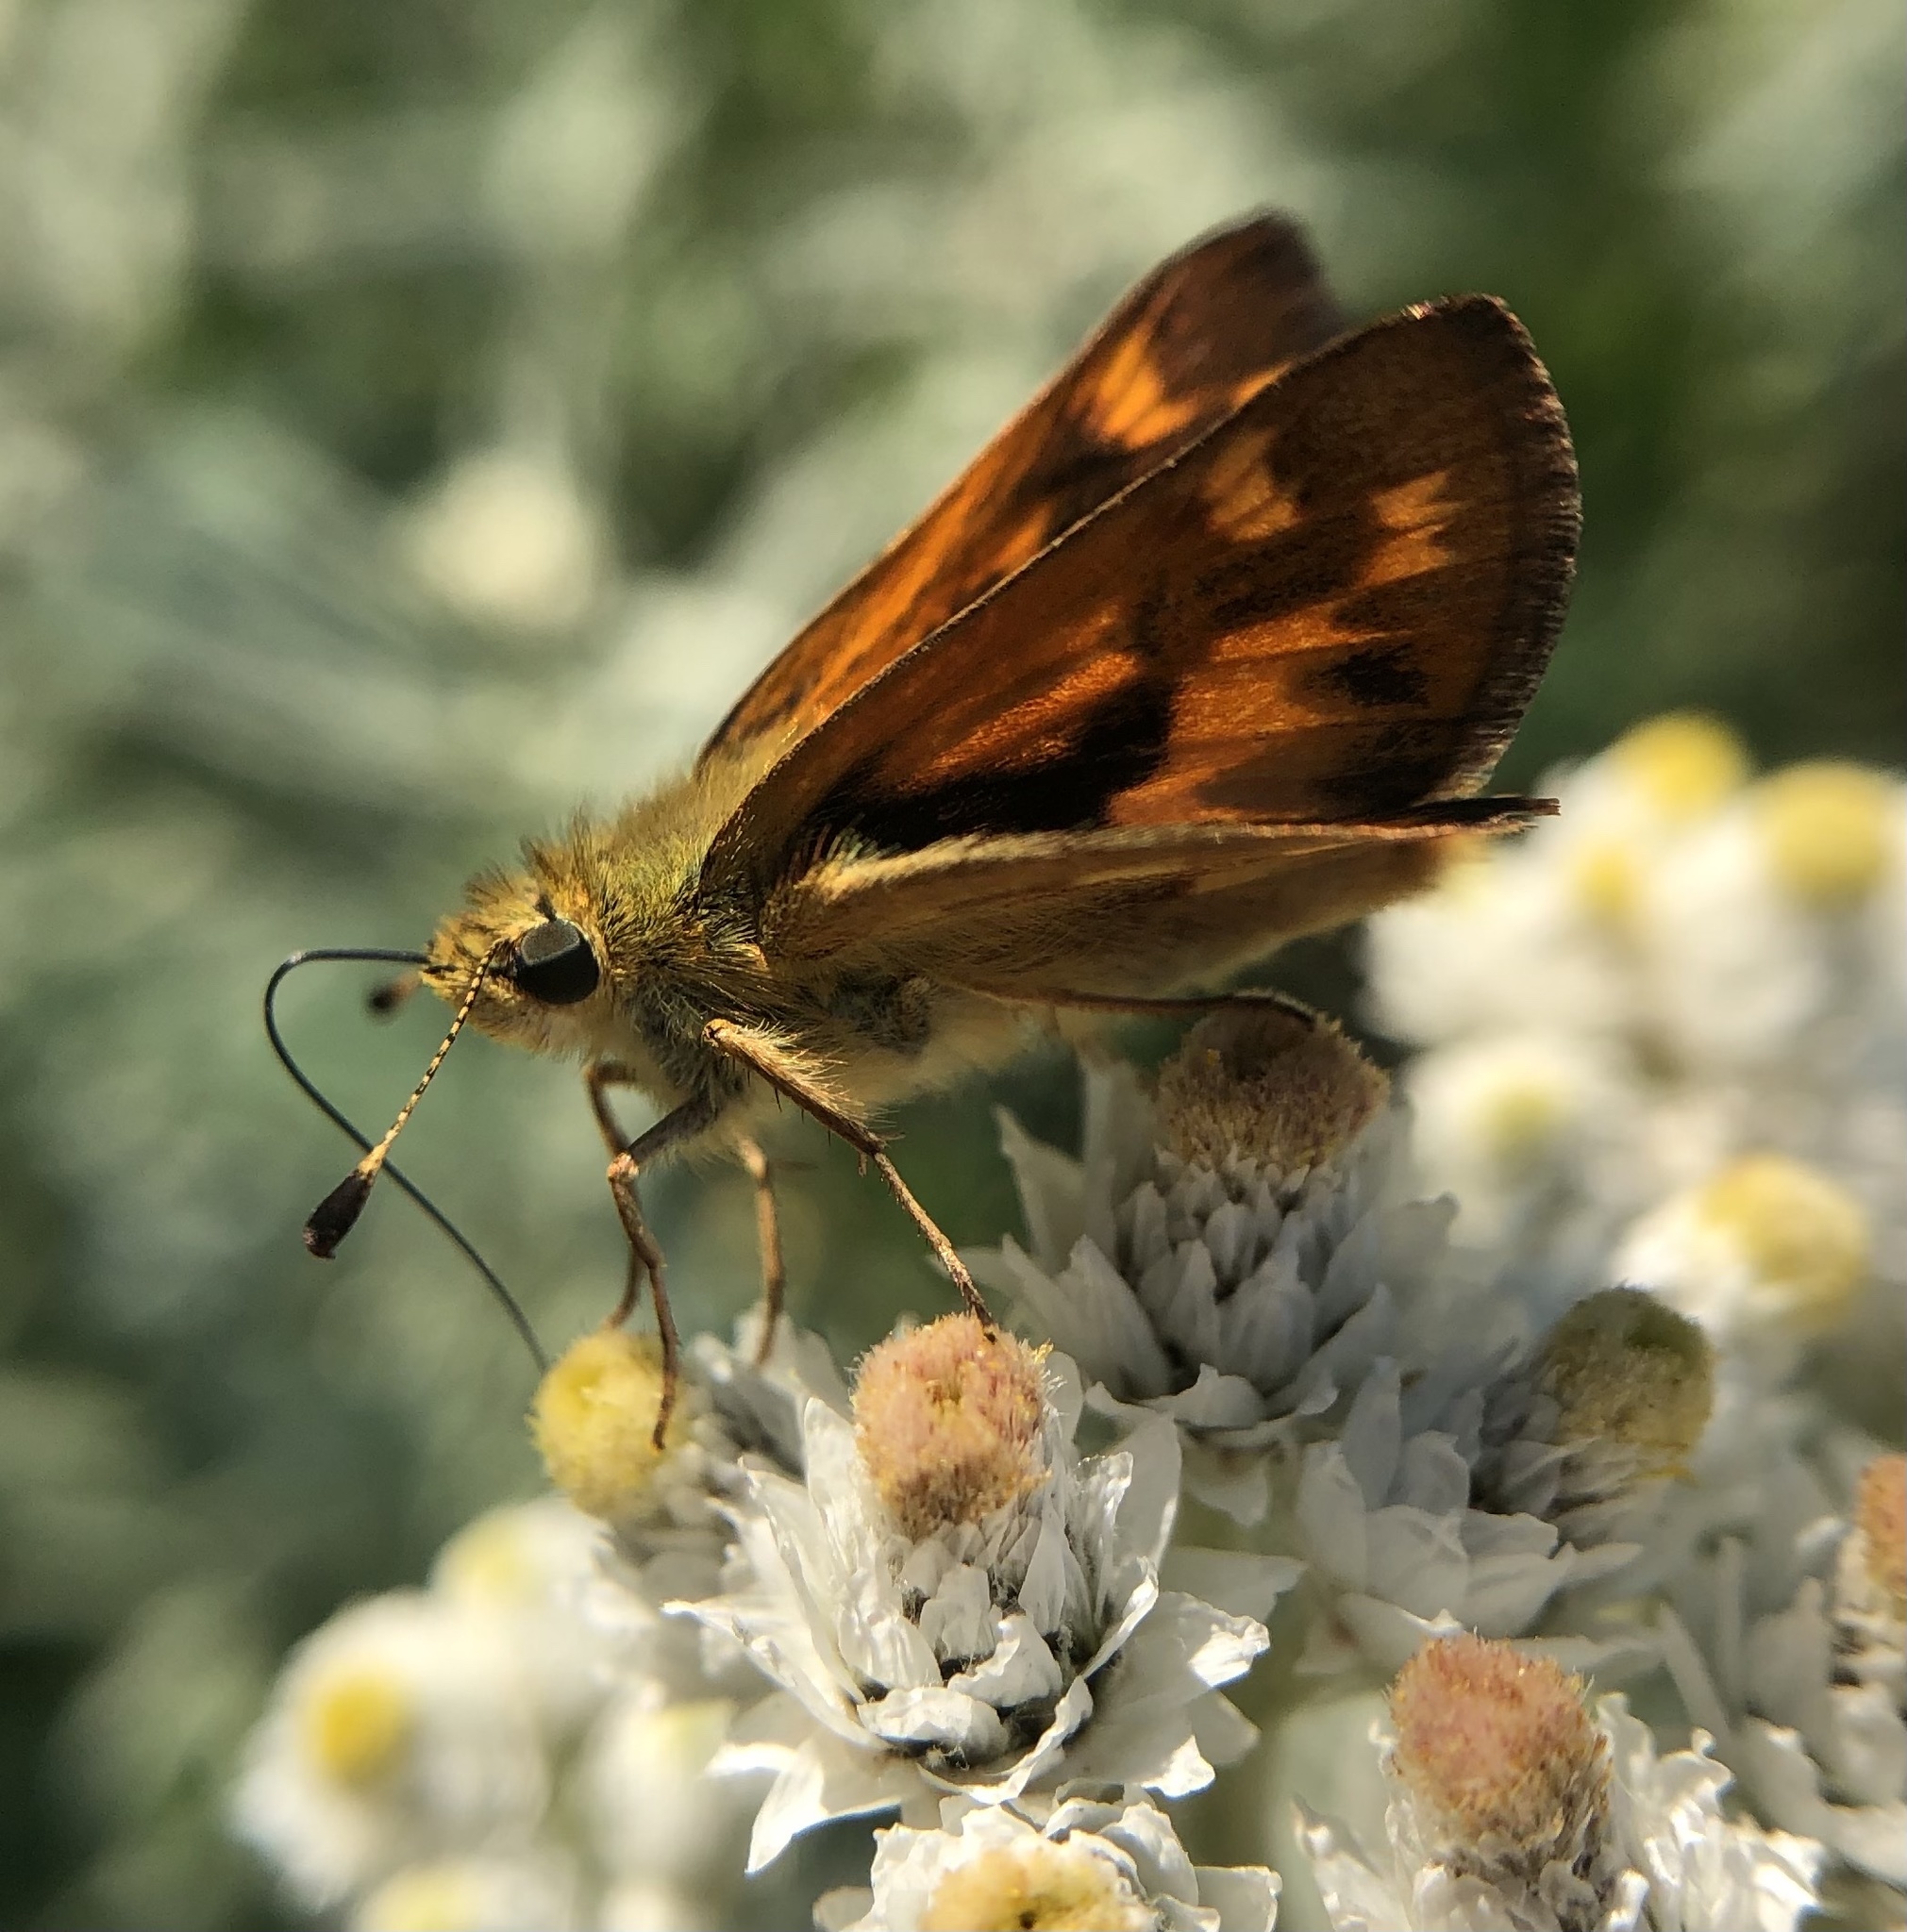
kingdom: Animalia
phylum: Arthropoda
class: Insecta
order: Lepidoptera
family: Hesperiidae
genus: Ochlodes
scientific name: Ochlodes sylvanoides
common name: Woodland skipper
